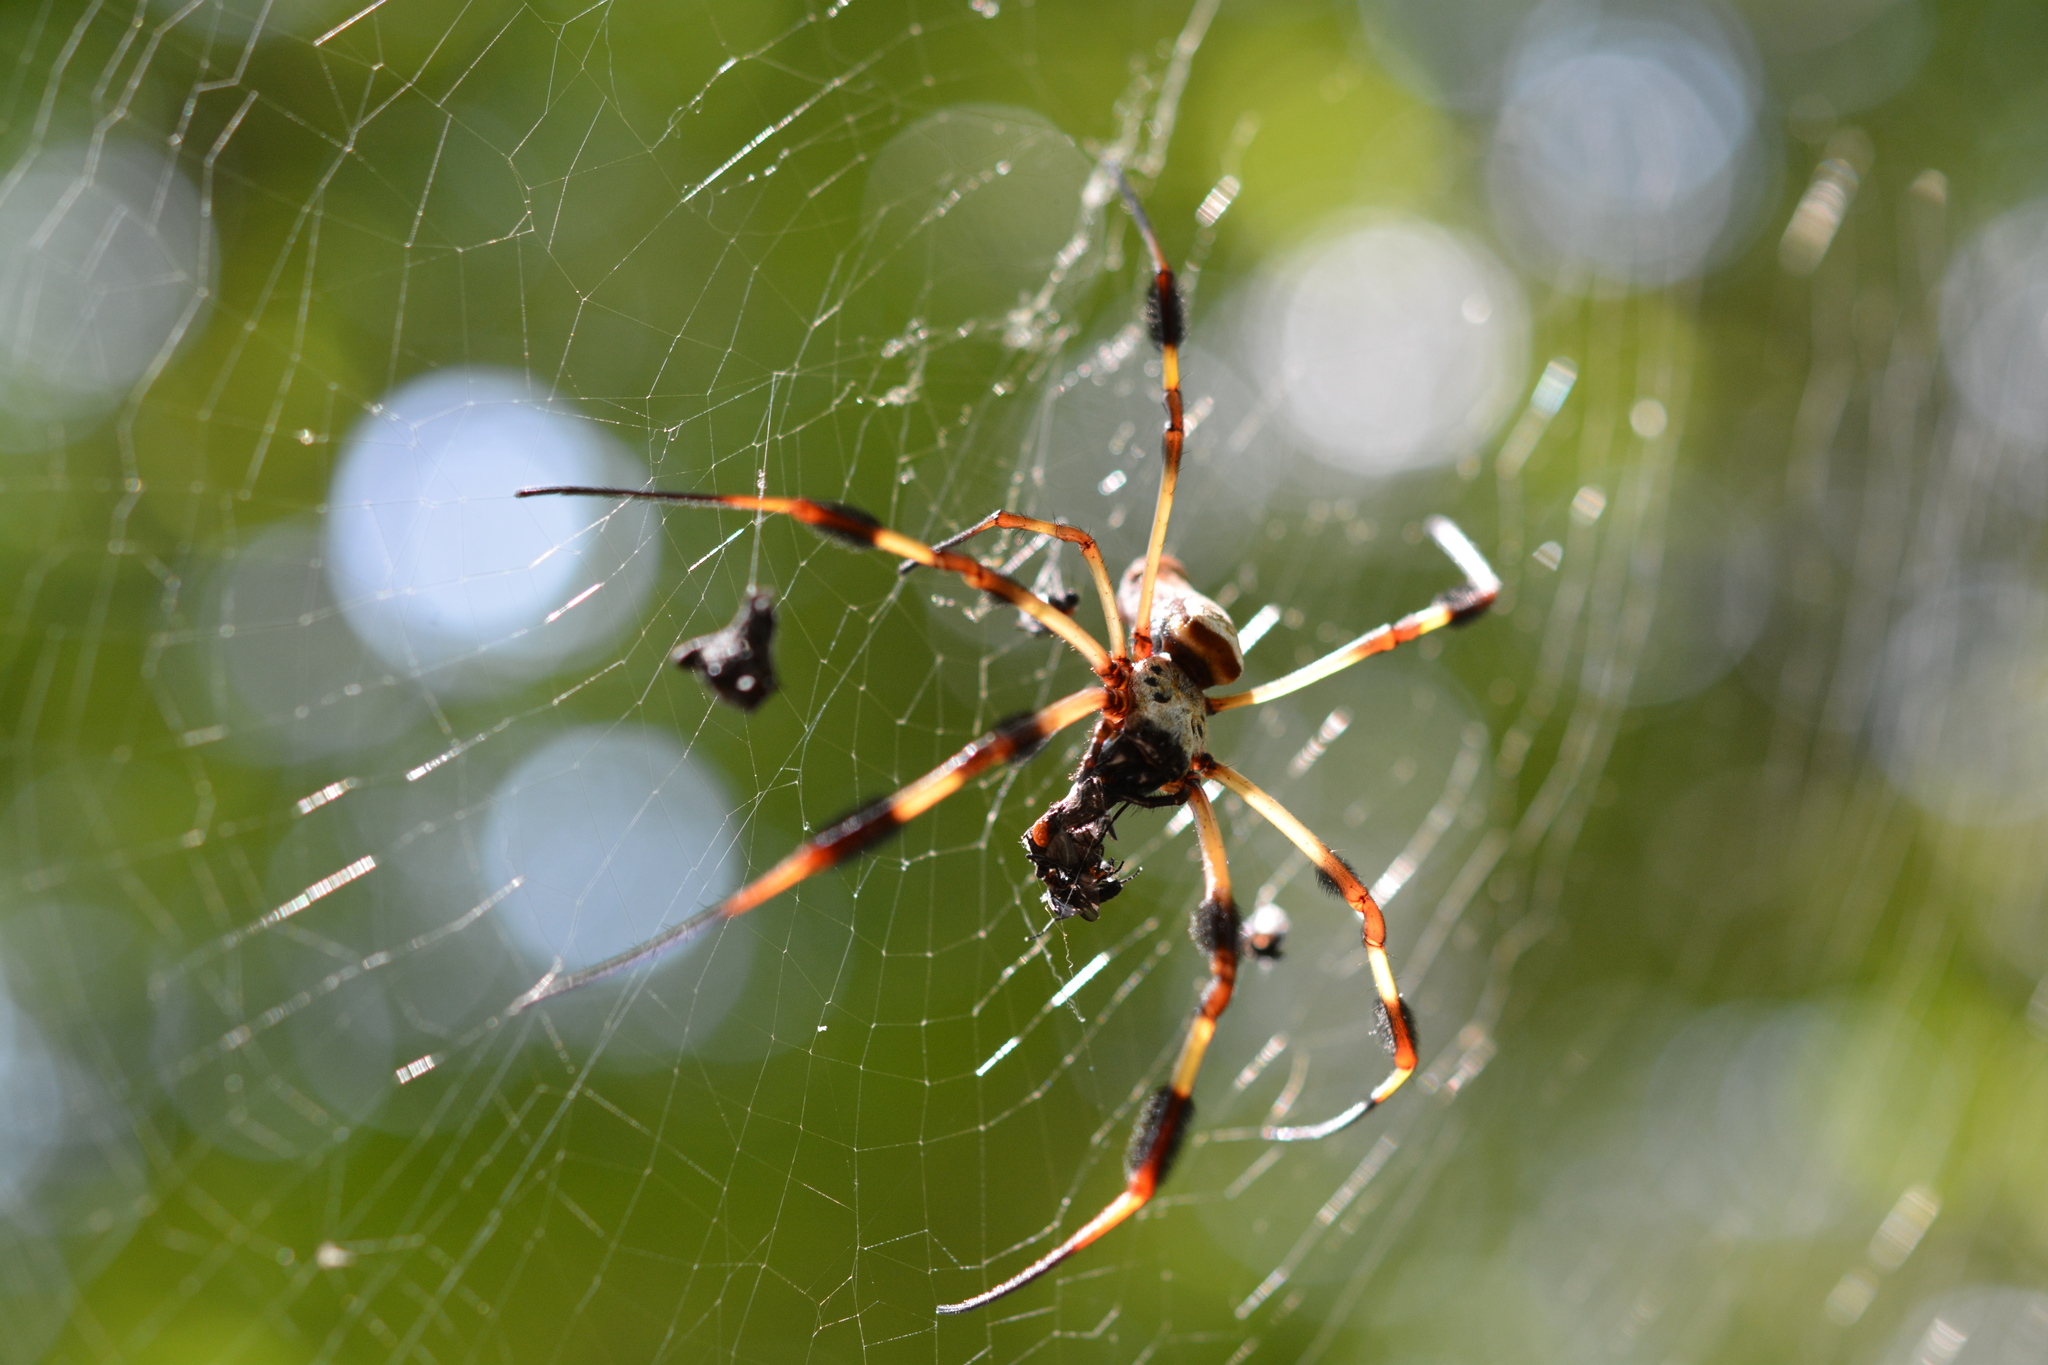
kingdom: Animalia
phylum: Arthropoda
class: Arachnida
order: Araneae
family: Araneidae
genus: Trichonephila
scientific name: Trichonephila clavipes
